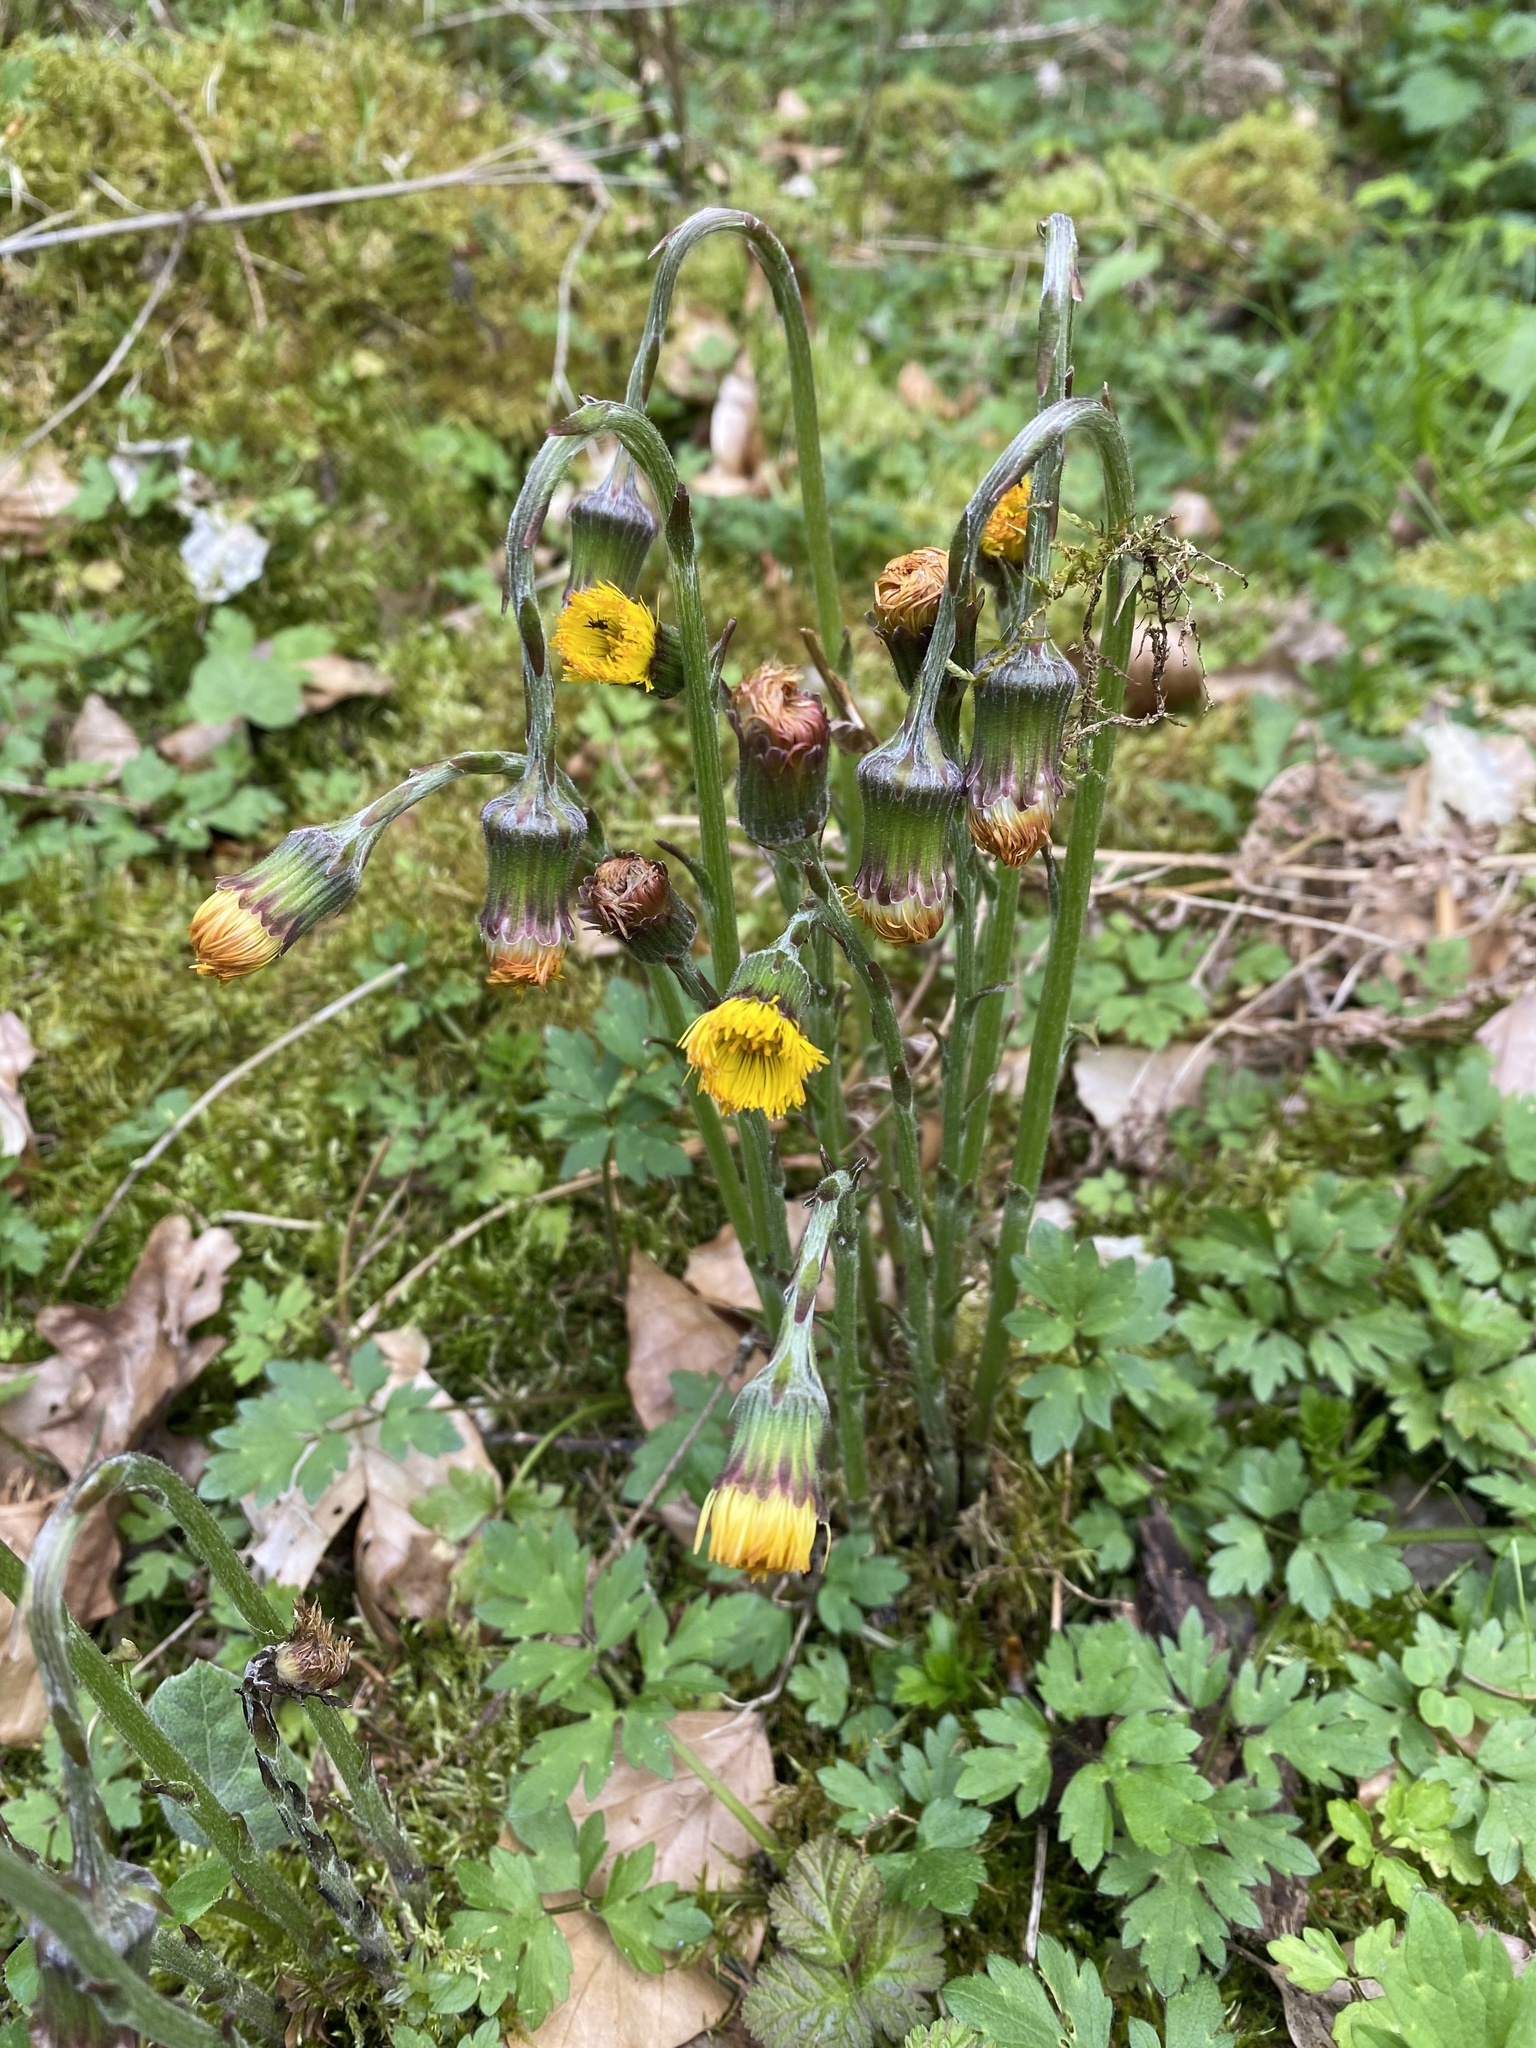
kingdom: Plantae
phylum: Tracheophyta
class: Magnoliopsida
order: Asterales
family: Asteraceae
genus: Tussilago
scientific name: Tussilago farfara
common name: Coltsfoot
